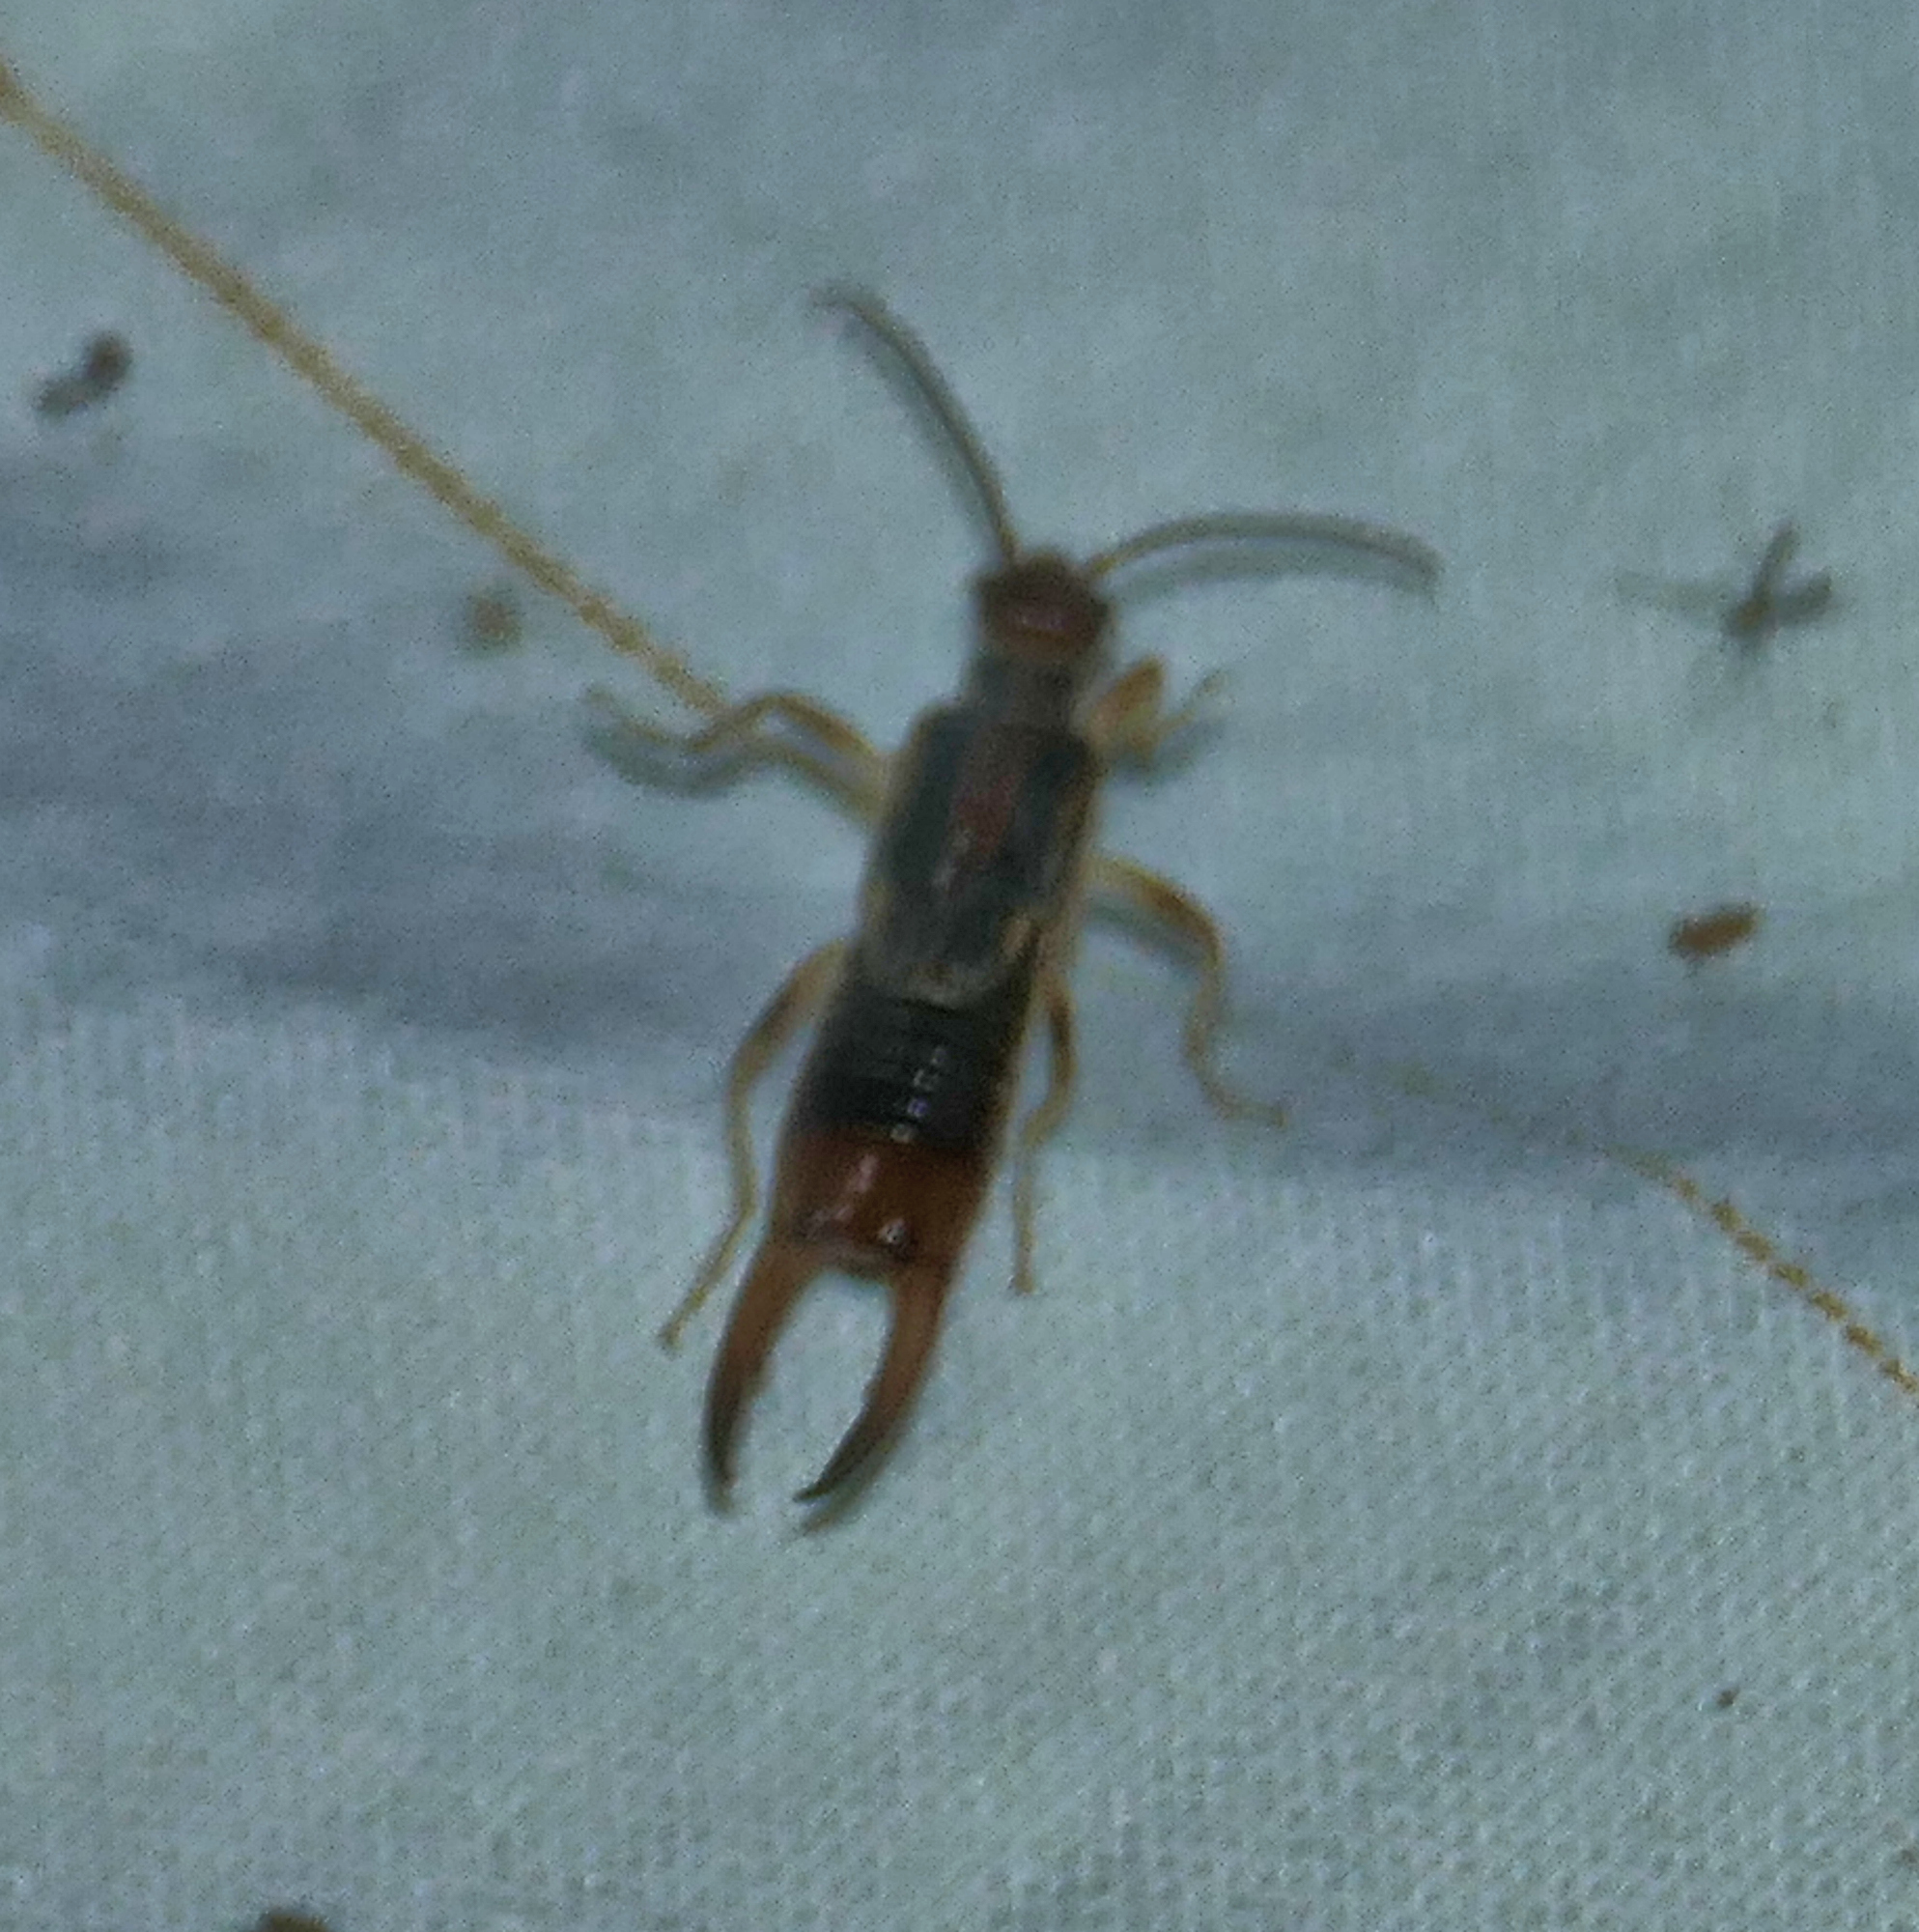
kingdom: Animalia
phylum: Arthropoda
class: Insecta
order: Dermaptera
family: Labiduridae
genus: Labidura
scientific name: Labidura riparia
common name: Striped earwig
